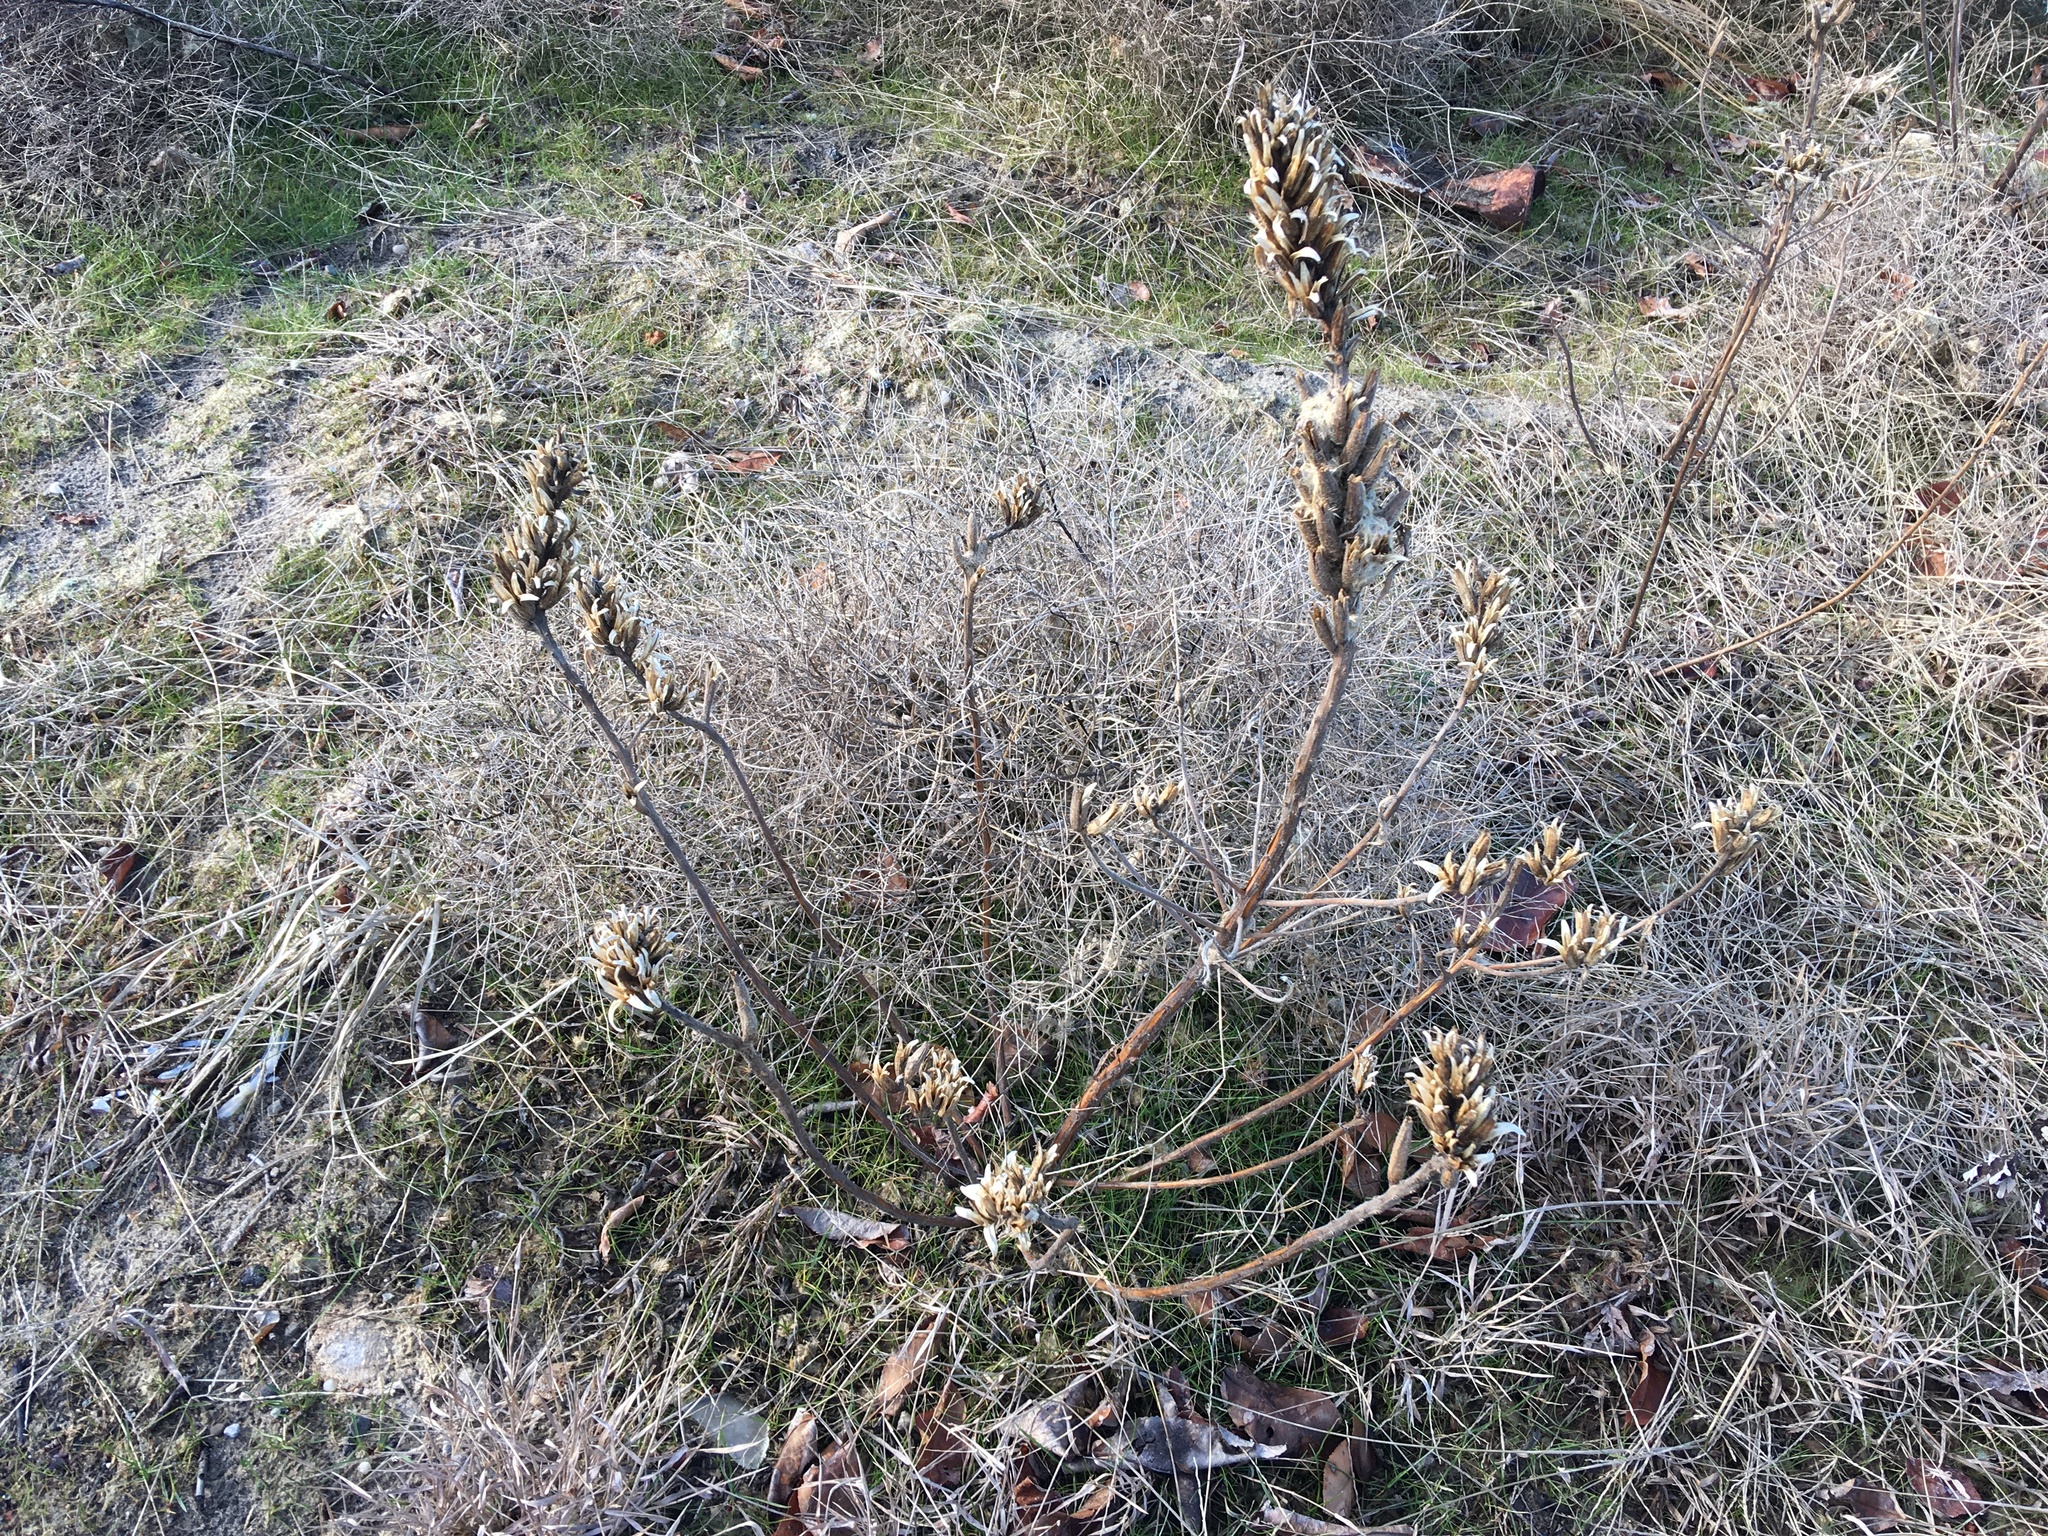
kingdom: Plantae
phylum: Tracheophyta
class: Magnoliopsida
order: Myrtales
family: Onagraceae
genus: Oenothera
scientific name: Oenothera biennis
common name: Common evening-primrose
